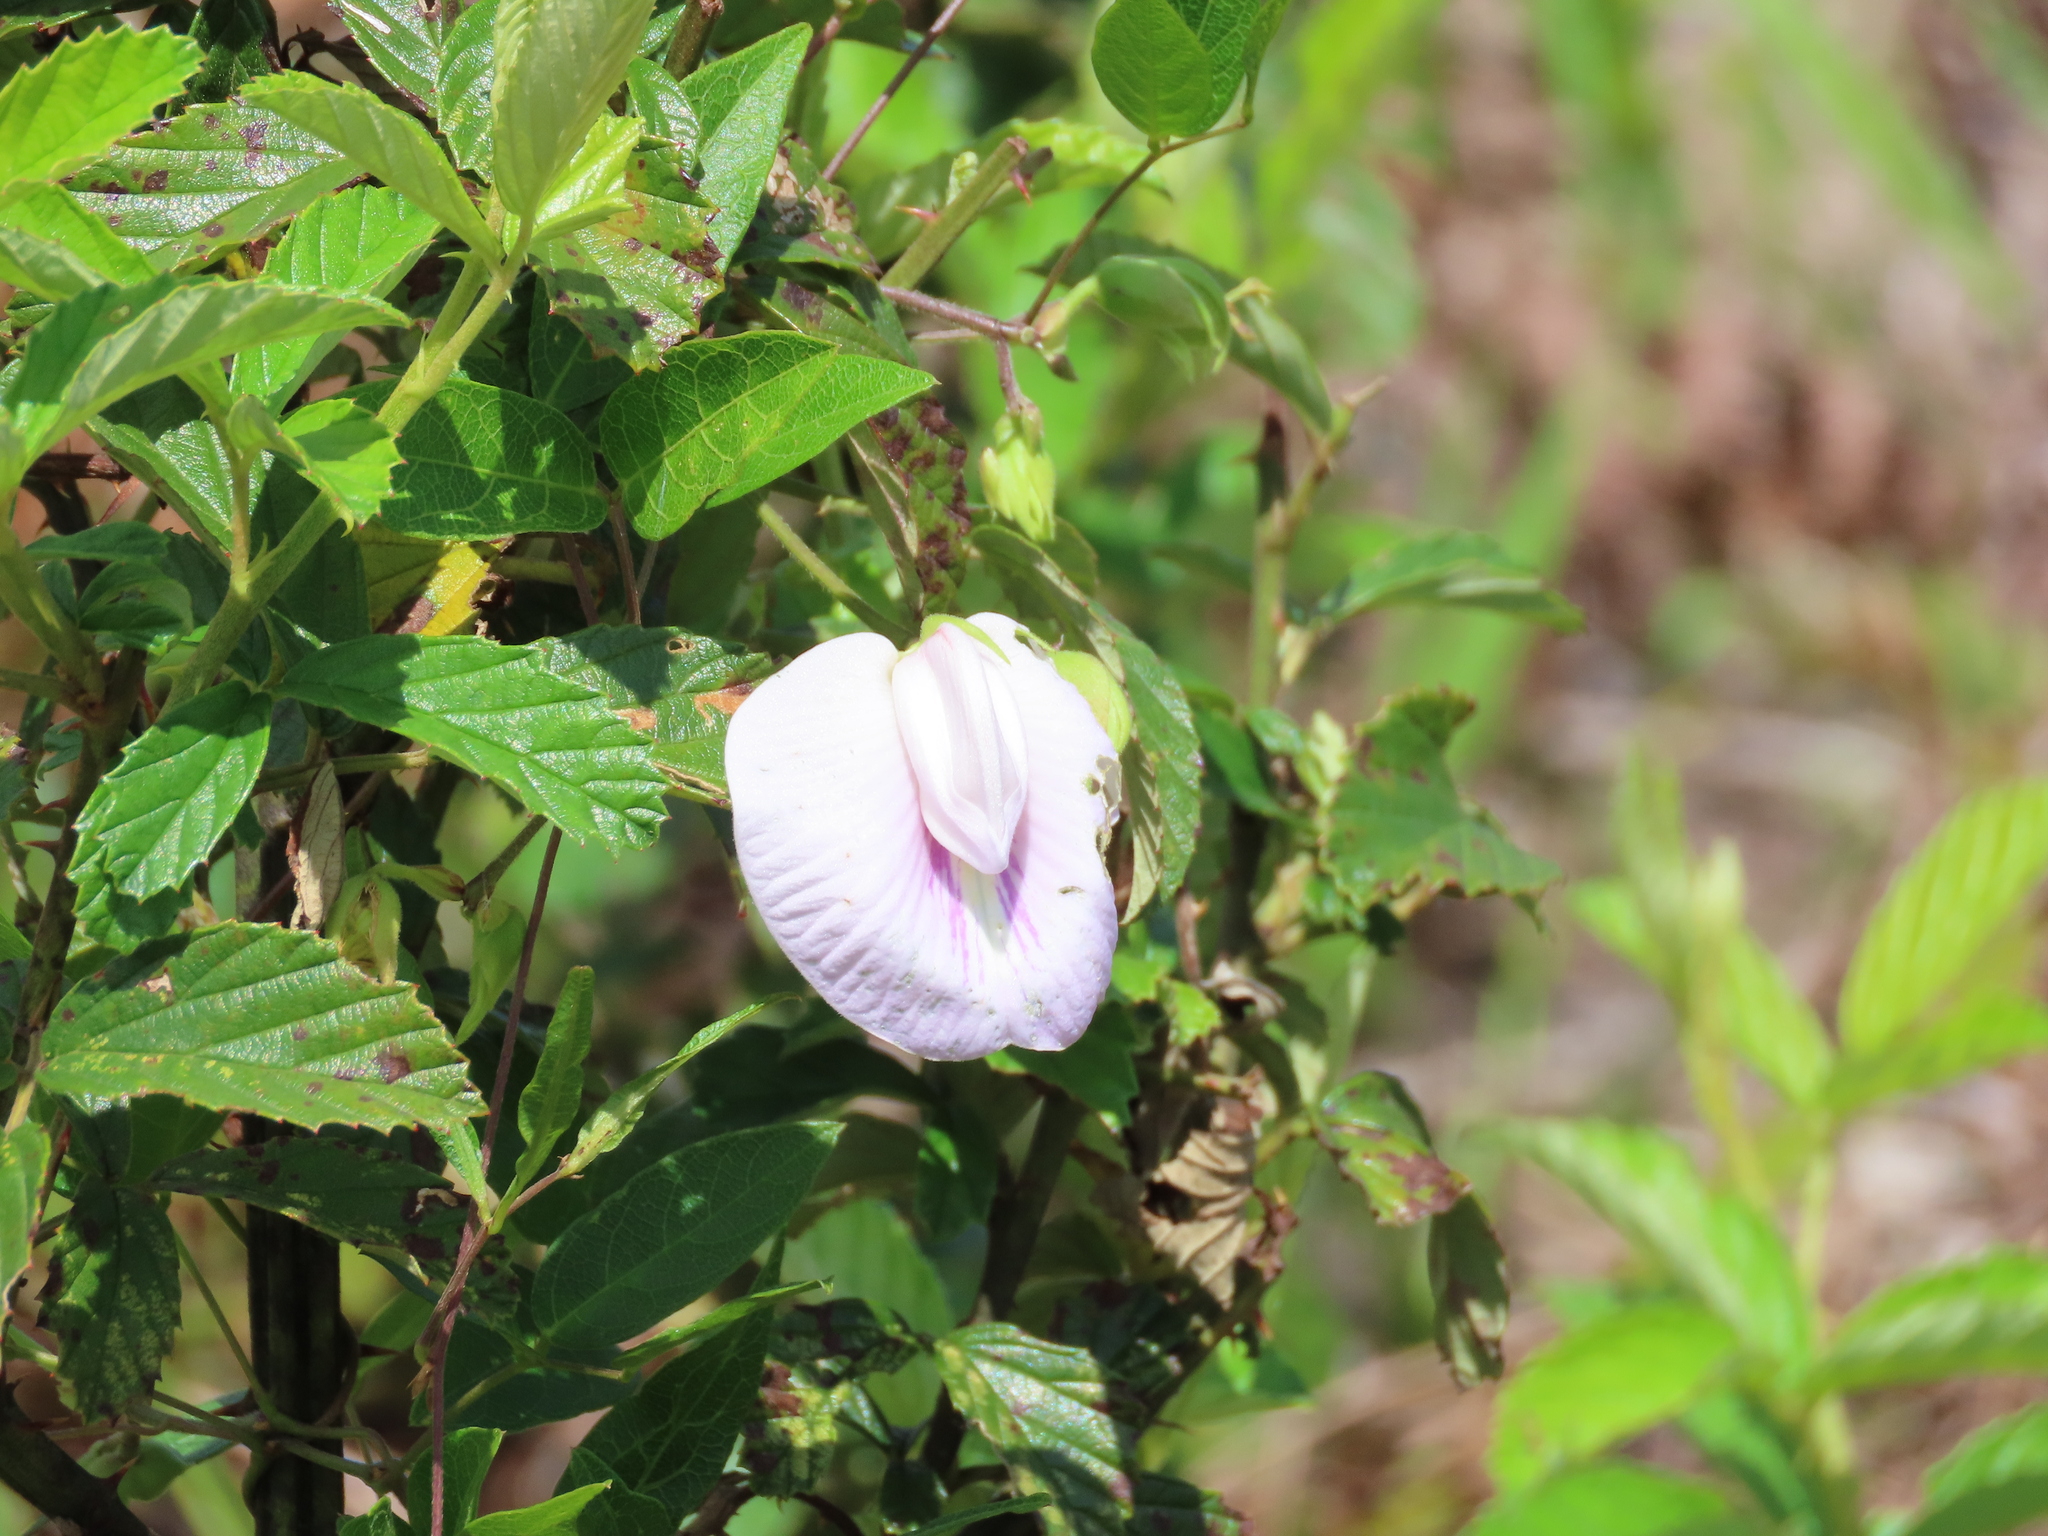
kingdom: Plantae
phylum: Tracheophyta
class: Magnoliopsida
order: Fabales
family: Fabaceae
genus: Centrosema
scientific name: Centrosema arenicola
